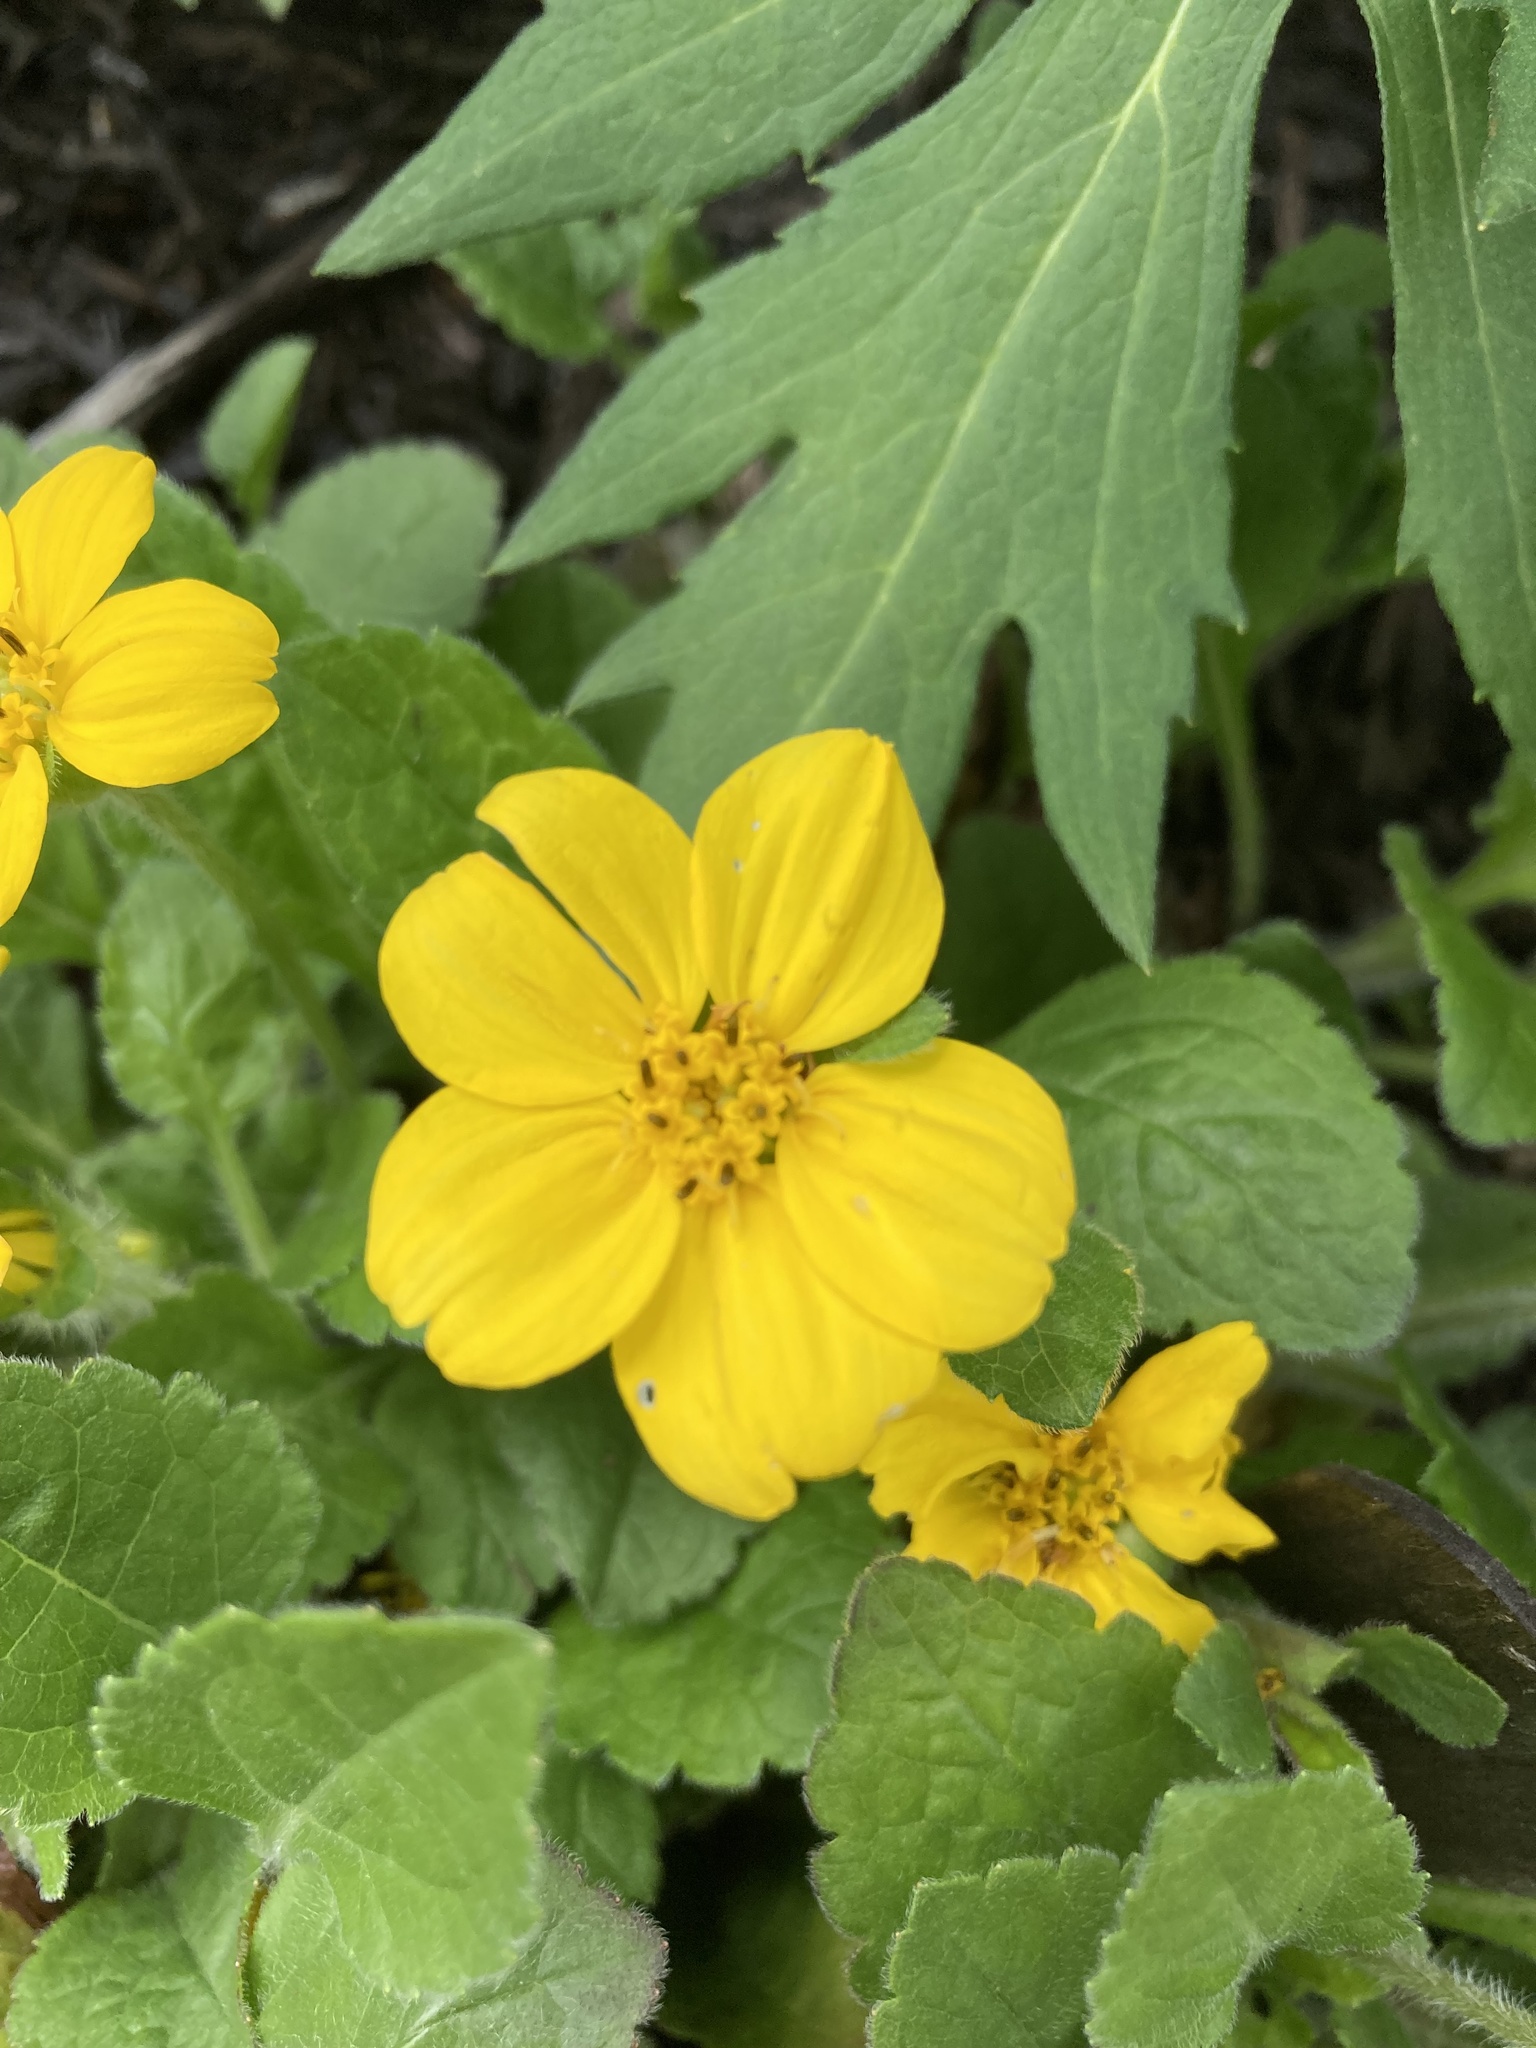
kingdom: Plantae
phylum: Tracheophyta
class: Magnoliopsida
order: Asterales
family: Asteraceae
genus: Chrysogonum
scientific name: Chrysogonum virginianum
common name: Golden-knee
